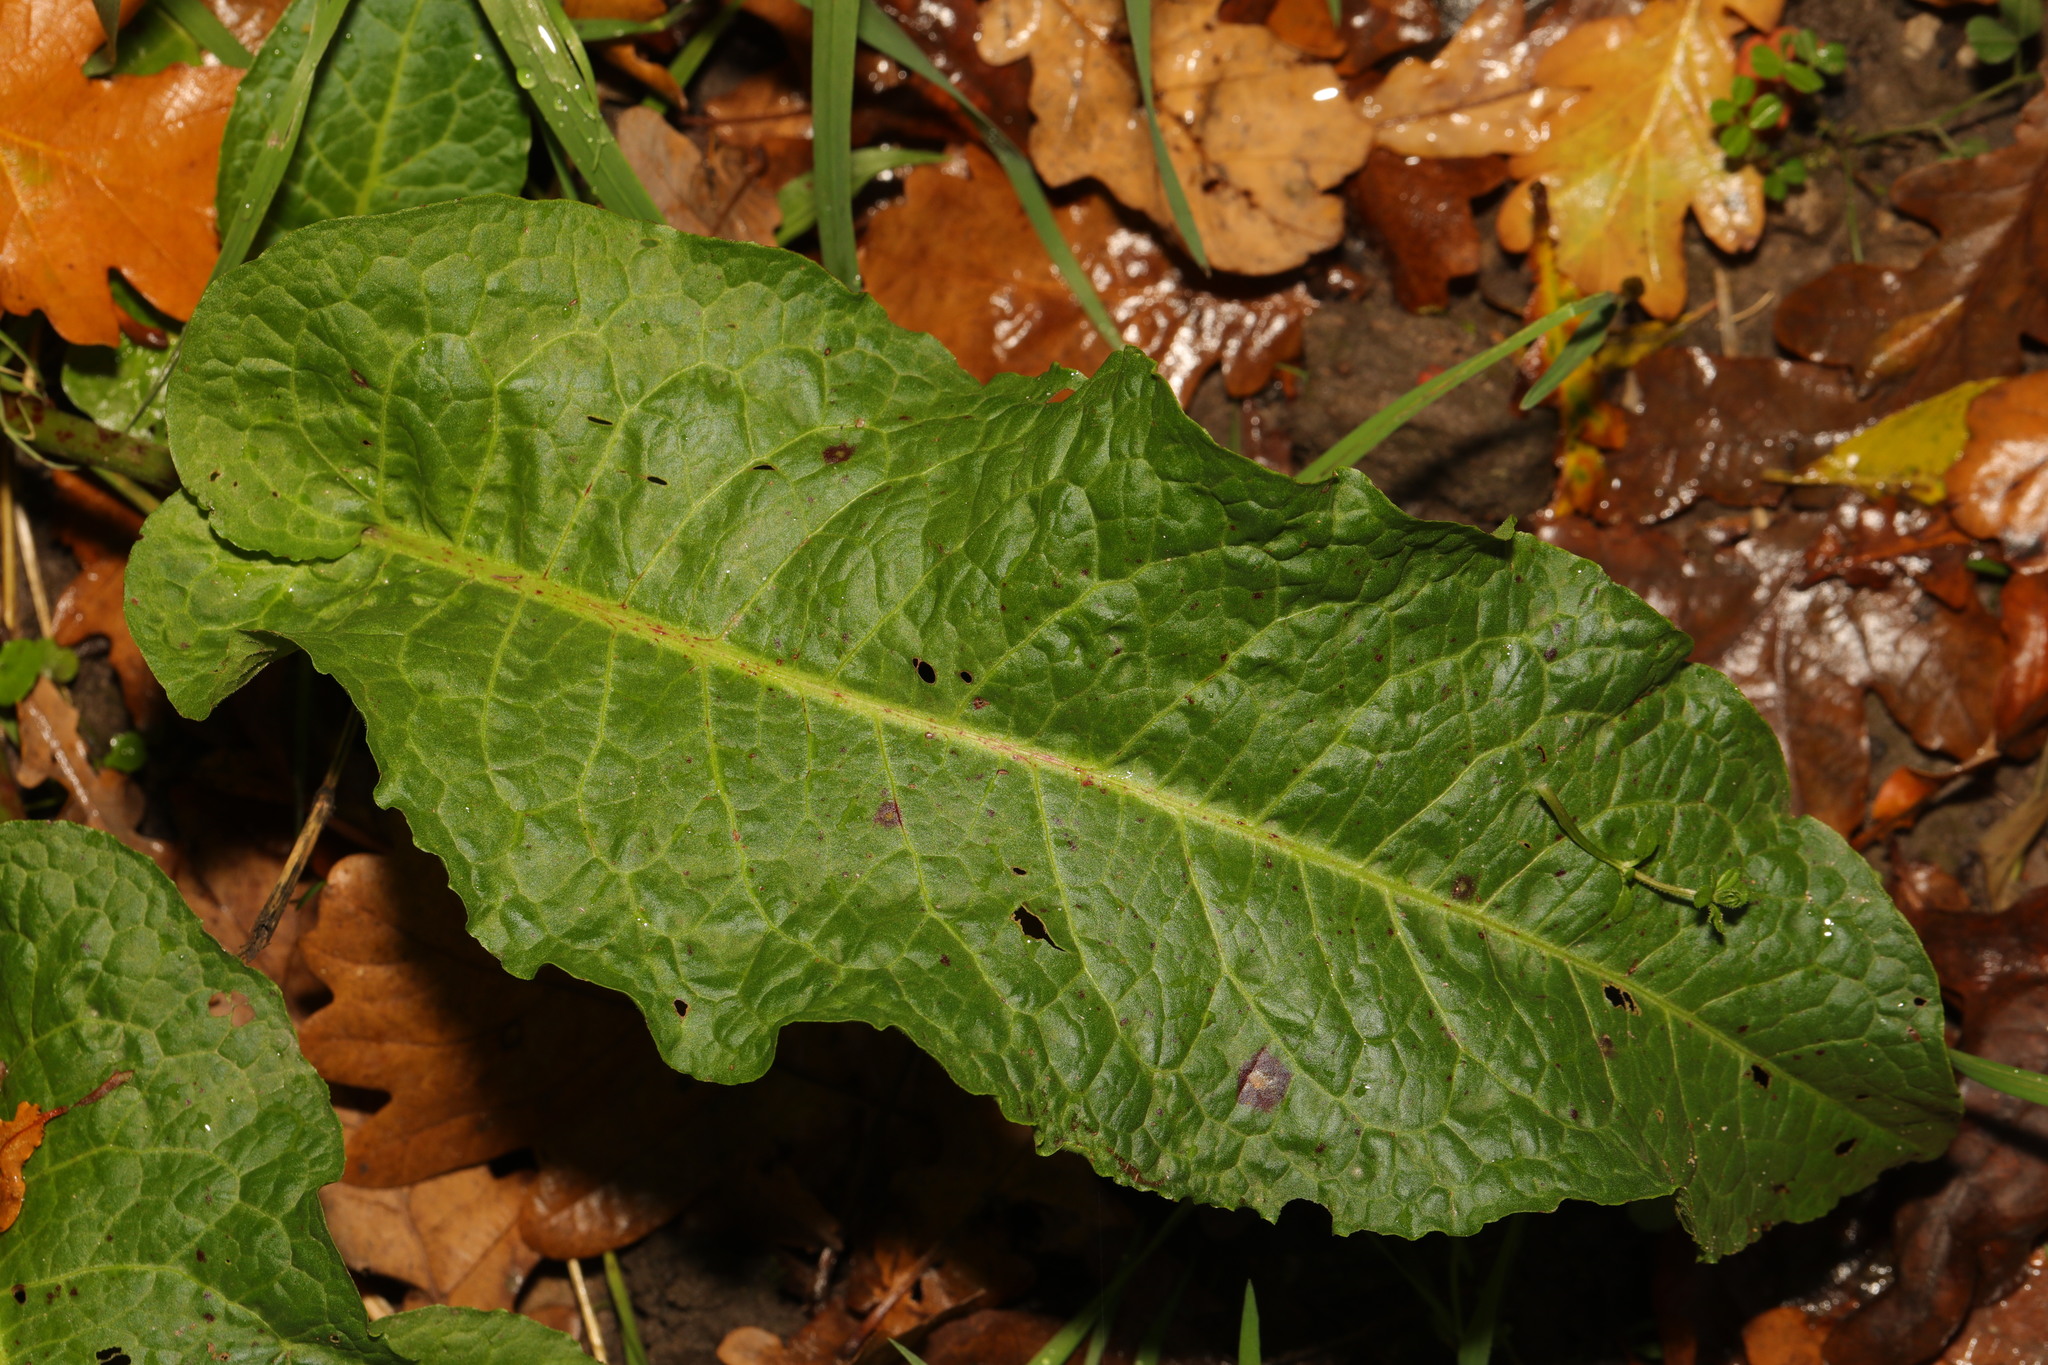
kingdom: Plantae
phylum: Tracheophyta
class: Magnoliopsida
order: Caryophyllales
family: Polygonaceae
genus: Rumex
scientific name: Rumex obtusifolius
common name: Bitter dock
